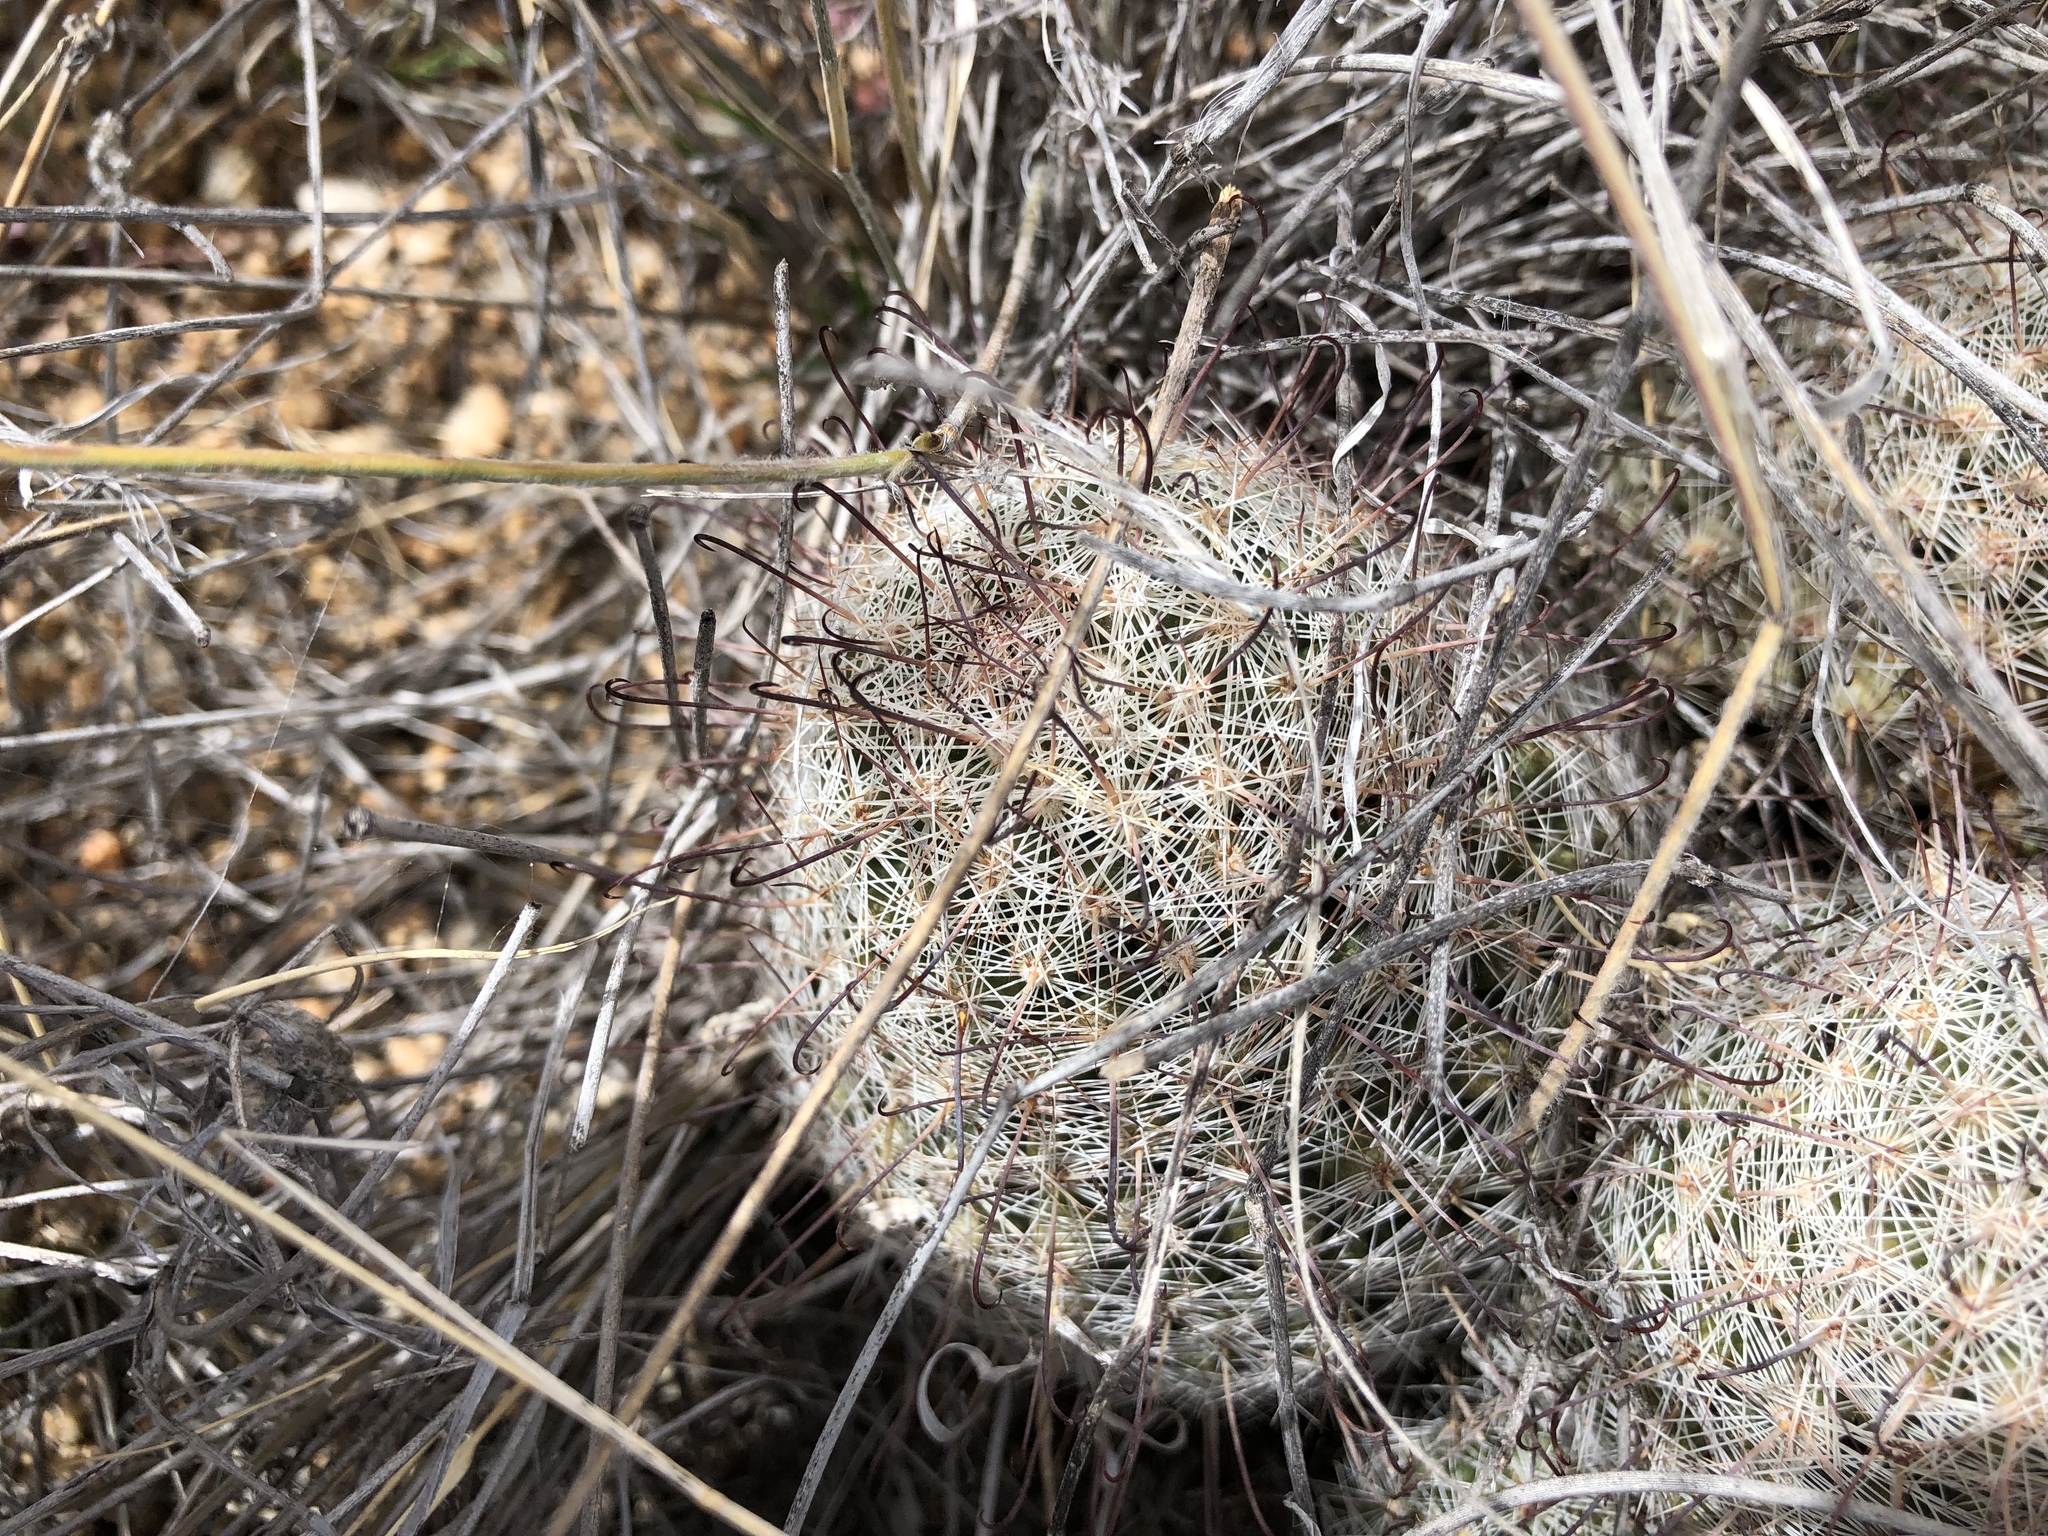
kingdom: Plantae
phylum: Tracheophyta
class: Magnoliopsida
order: Caryophyllales
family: Cactaceae
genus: Cochemiea
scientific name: Cochemiea grahamii
